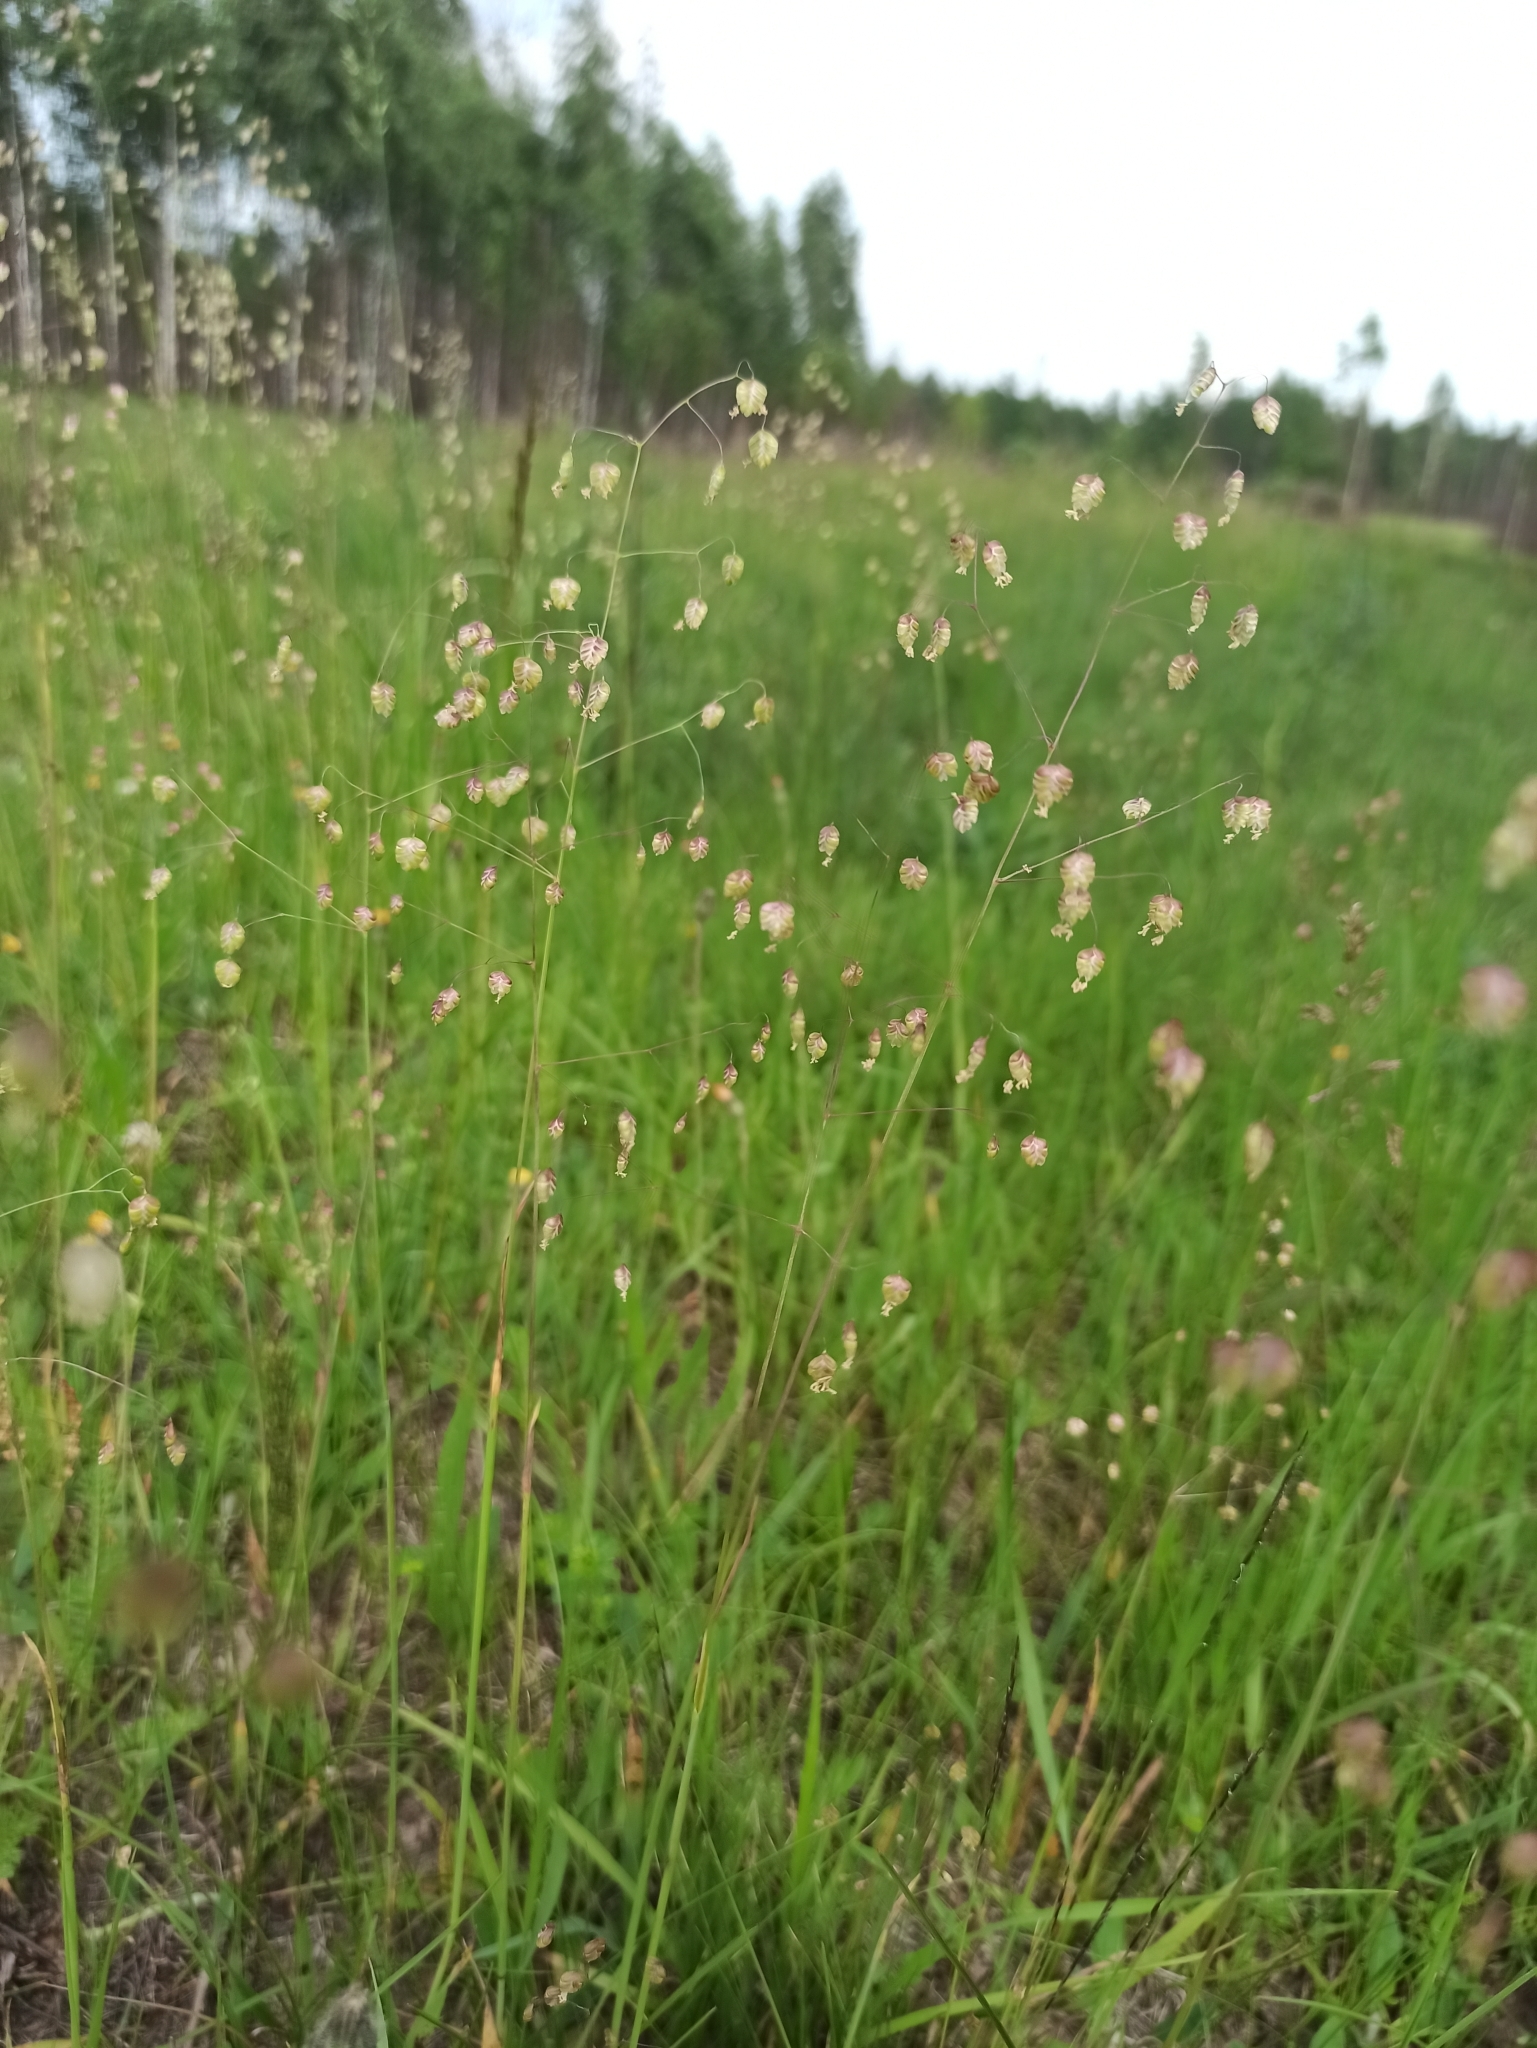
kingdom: Plantae
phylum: Tracheophyta
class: Liliopsida
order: Poales
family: Poaceae
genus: Briza
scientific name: Briza media
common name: Quaking grass
